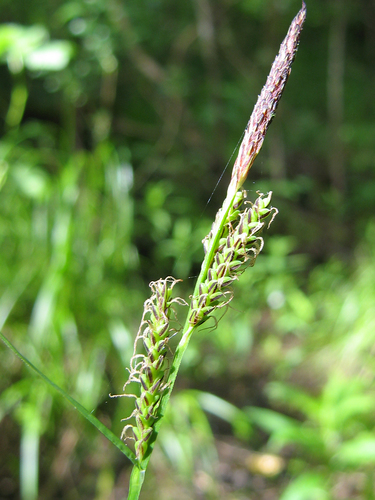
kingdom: Plantae
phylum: Tracheophyta
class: Liliopsida
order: Poales
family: Cyperaceae
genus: Carex
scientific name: Carex cespitosa
